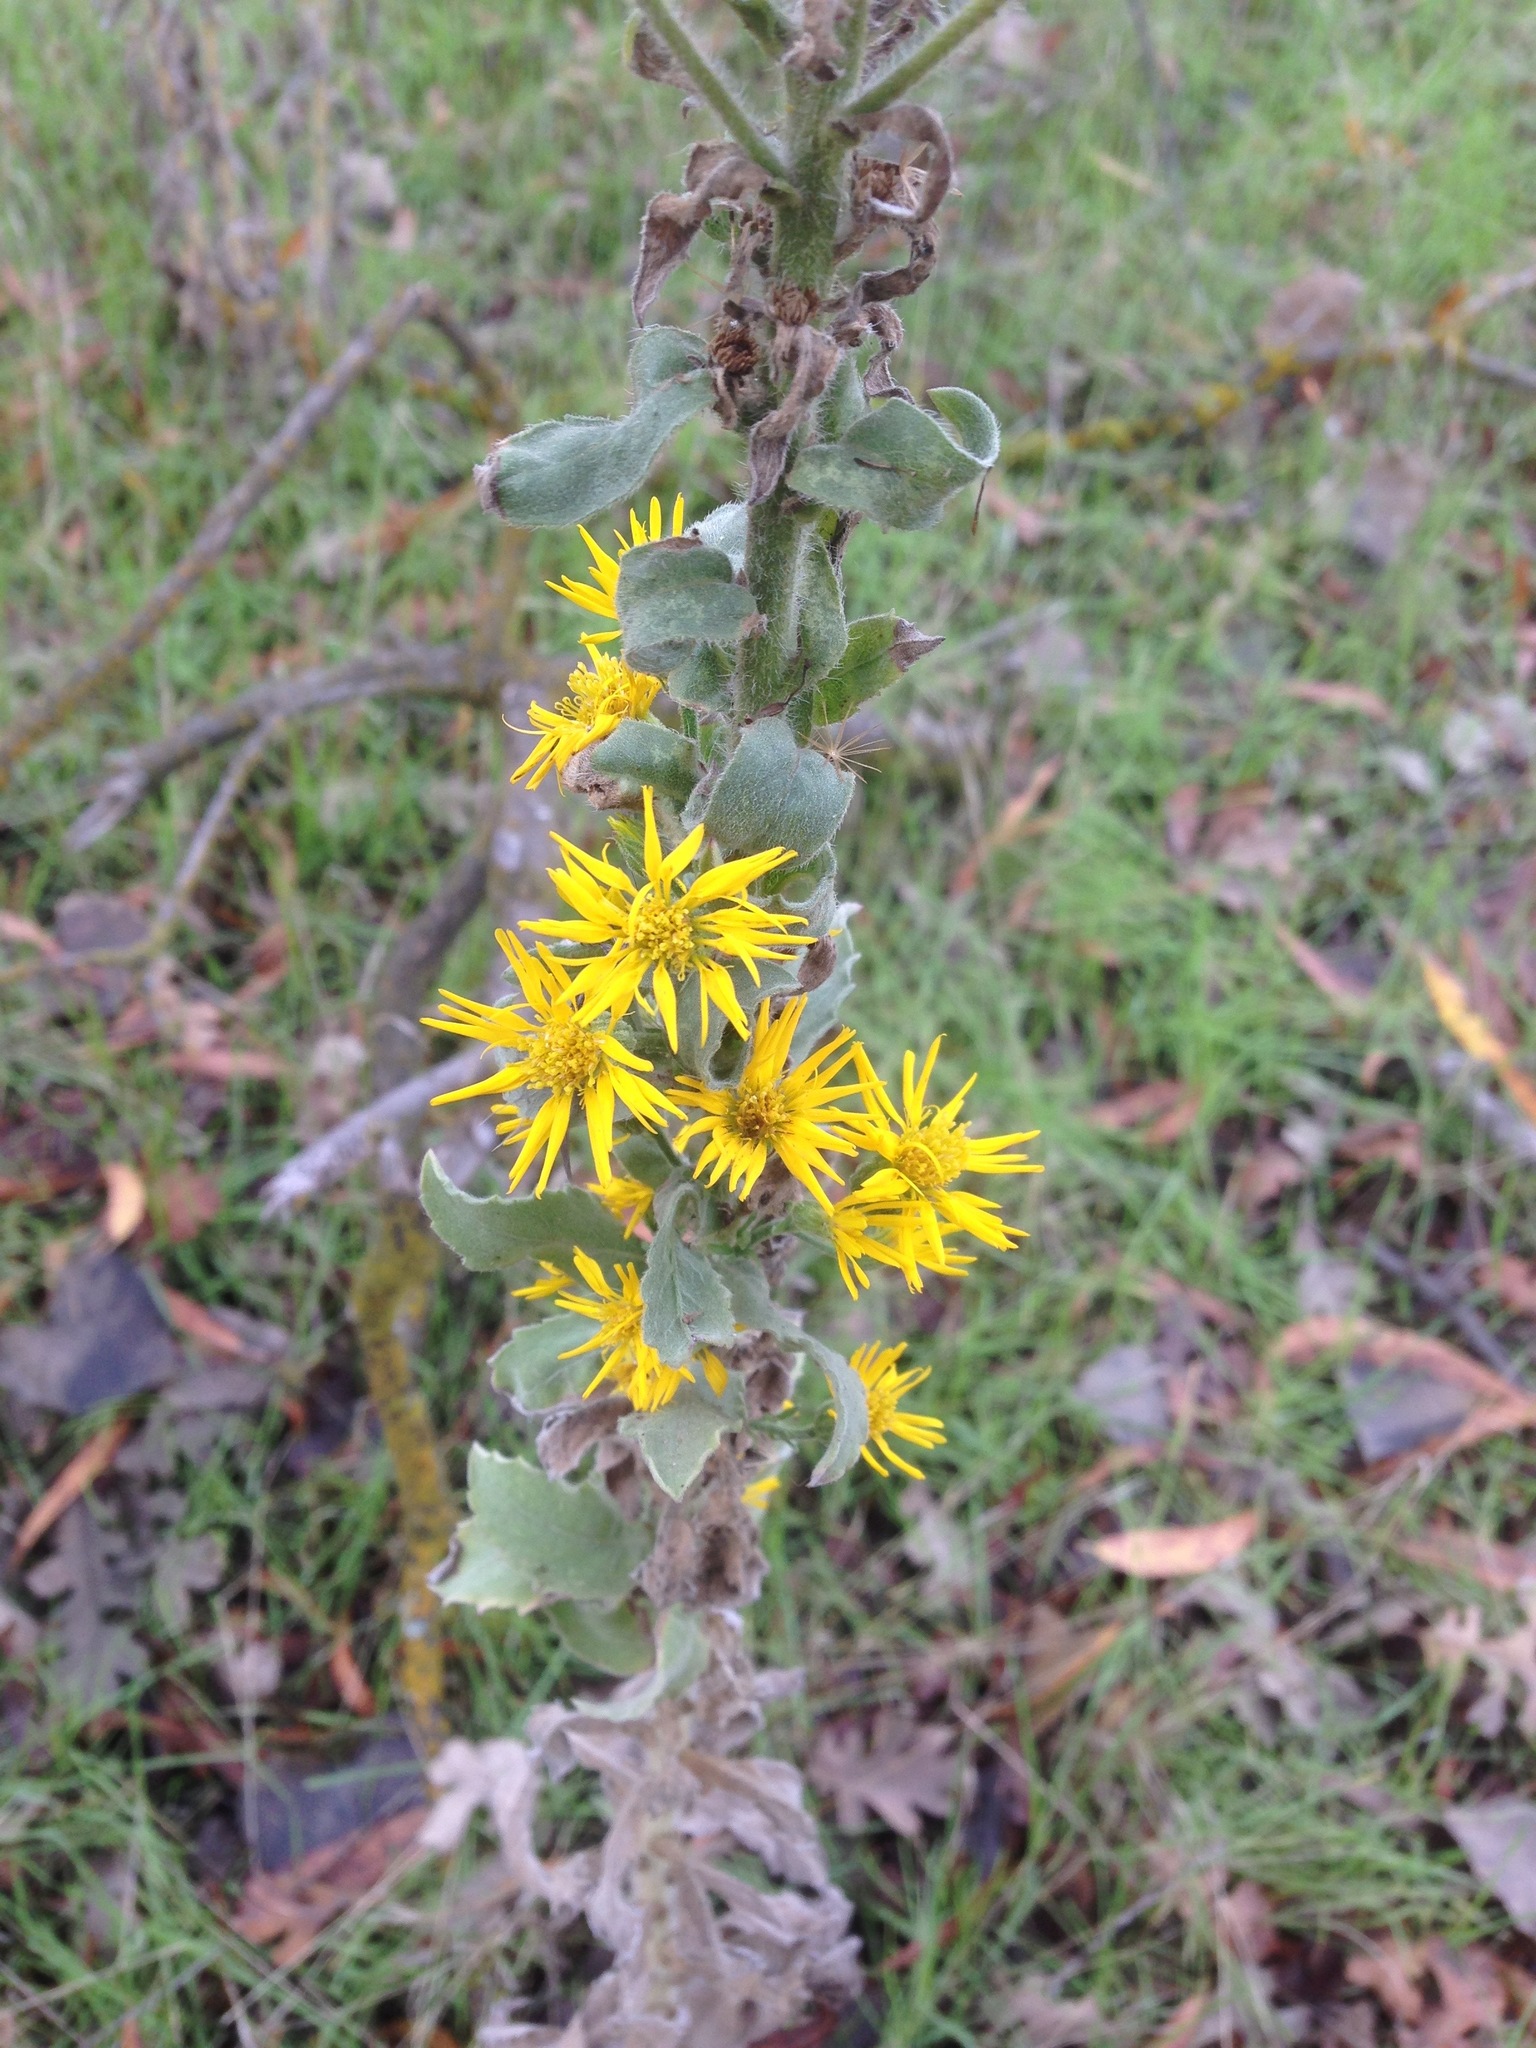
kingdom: Plantae
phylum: Tracheophyta
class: Magnoliopsida
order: Asterales
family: Asteraceae
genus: Heterotheca
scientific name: Heterotheca grandiflora
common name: Telegraphweed
